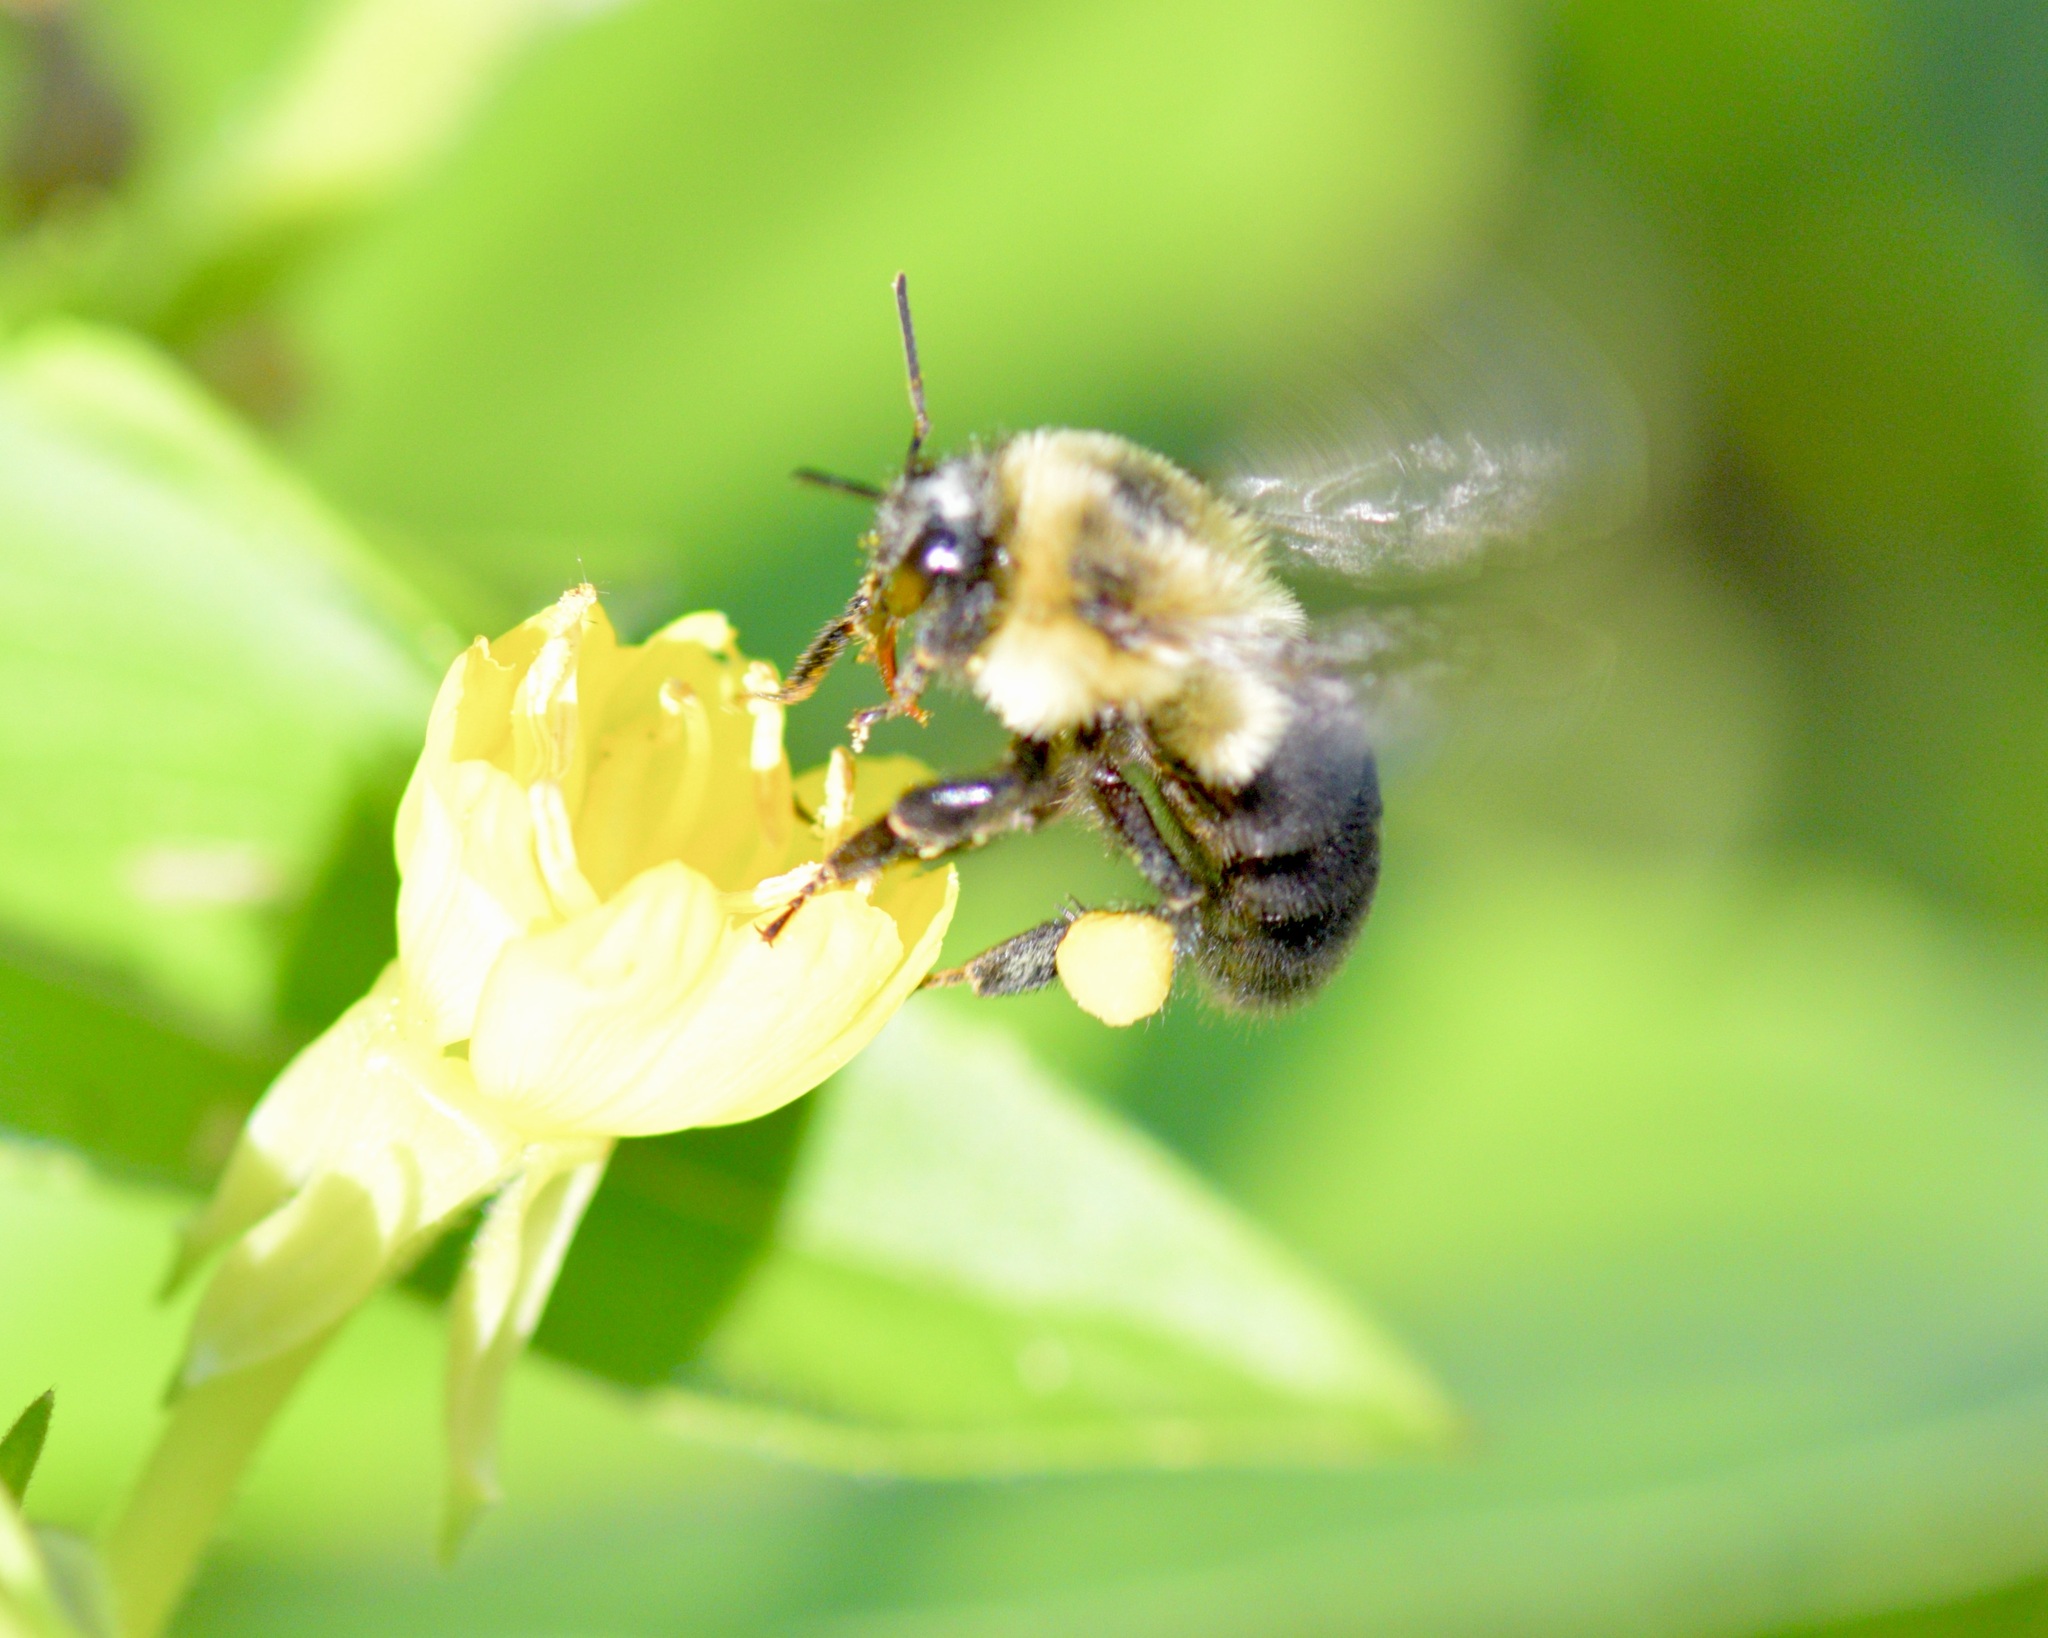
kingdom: Animalia
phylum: Arthropoda
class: Insecta
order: Hymenoptera
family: Apidae
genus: Bombus
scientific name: Bombus impatiens
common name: Common eastern bumble bee
